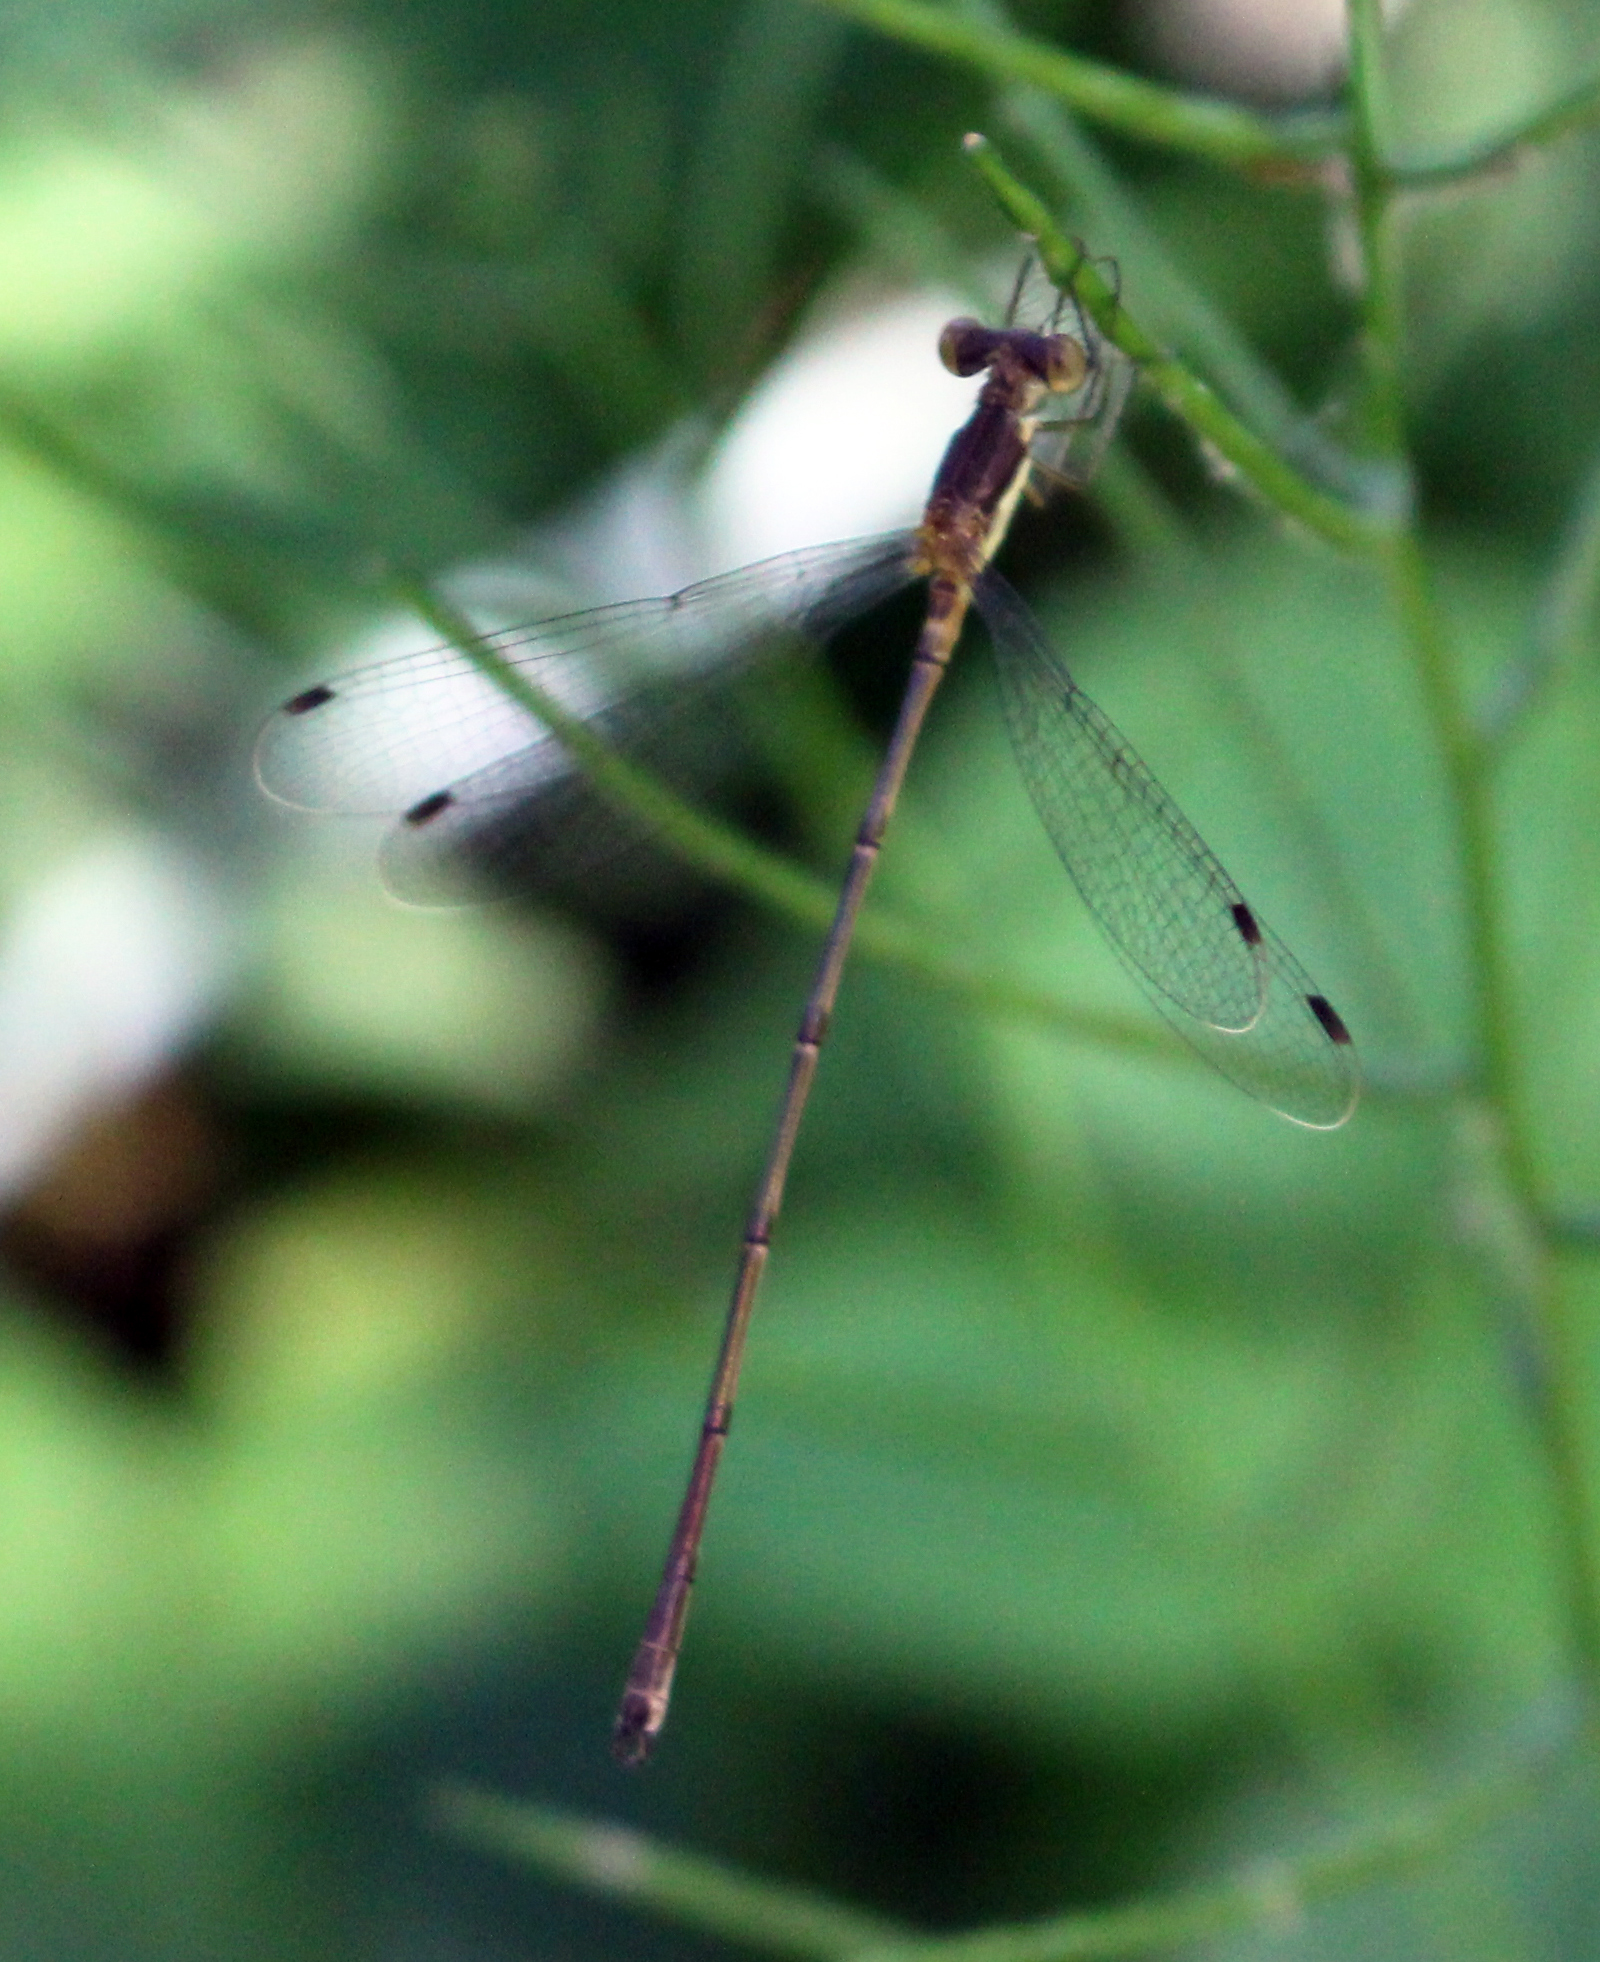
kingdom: Animalia
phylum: Arthropoda
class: Insecta
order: Odonata
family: Lestidae
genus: Lestes
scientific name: Lestes rectangularis
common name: Slender spreadwing
